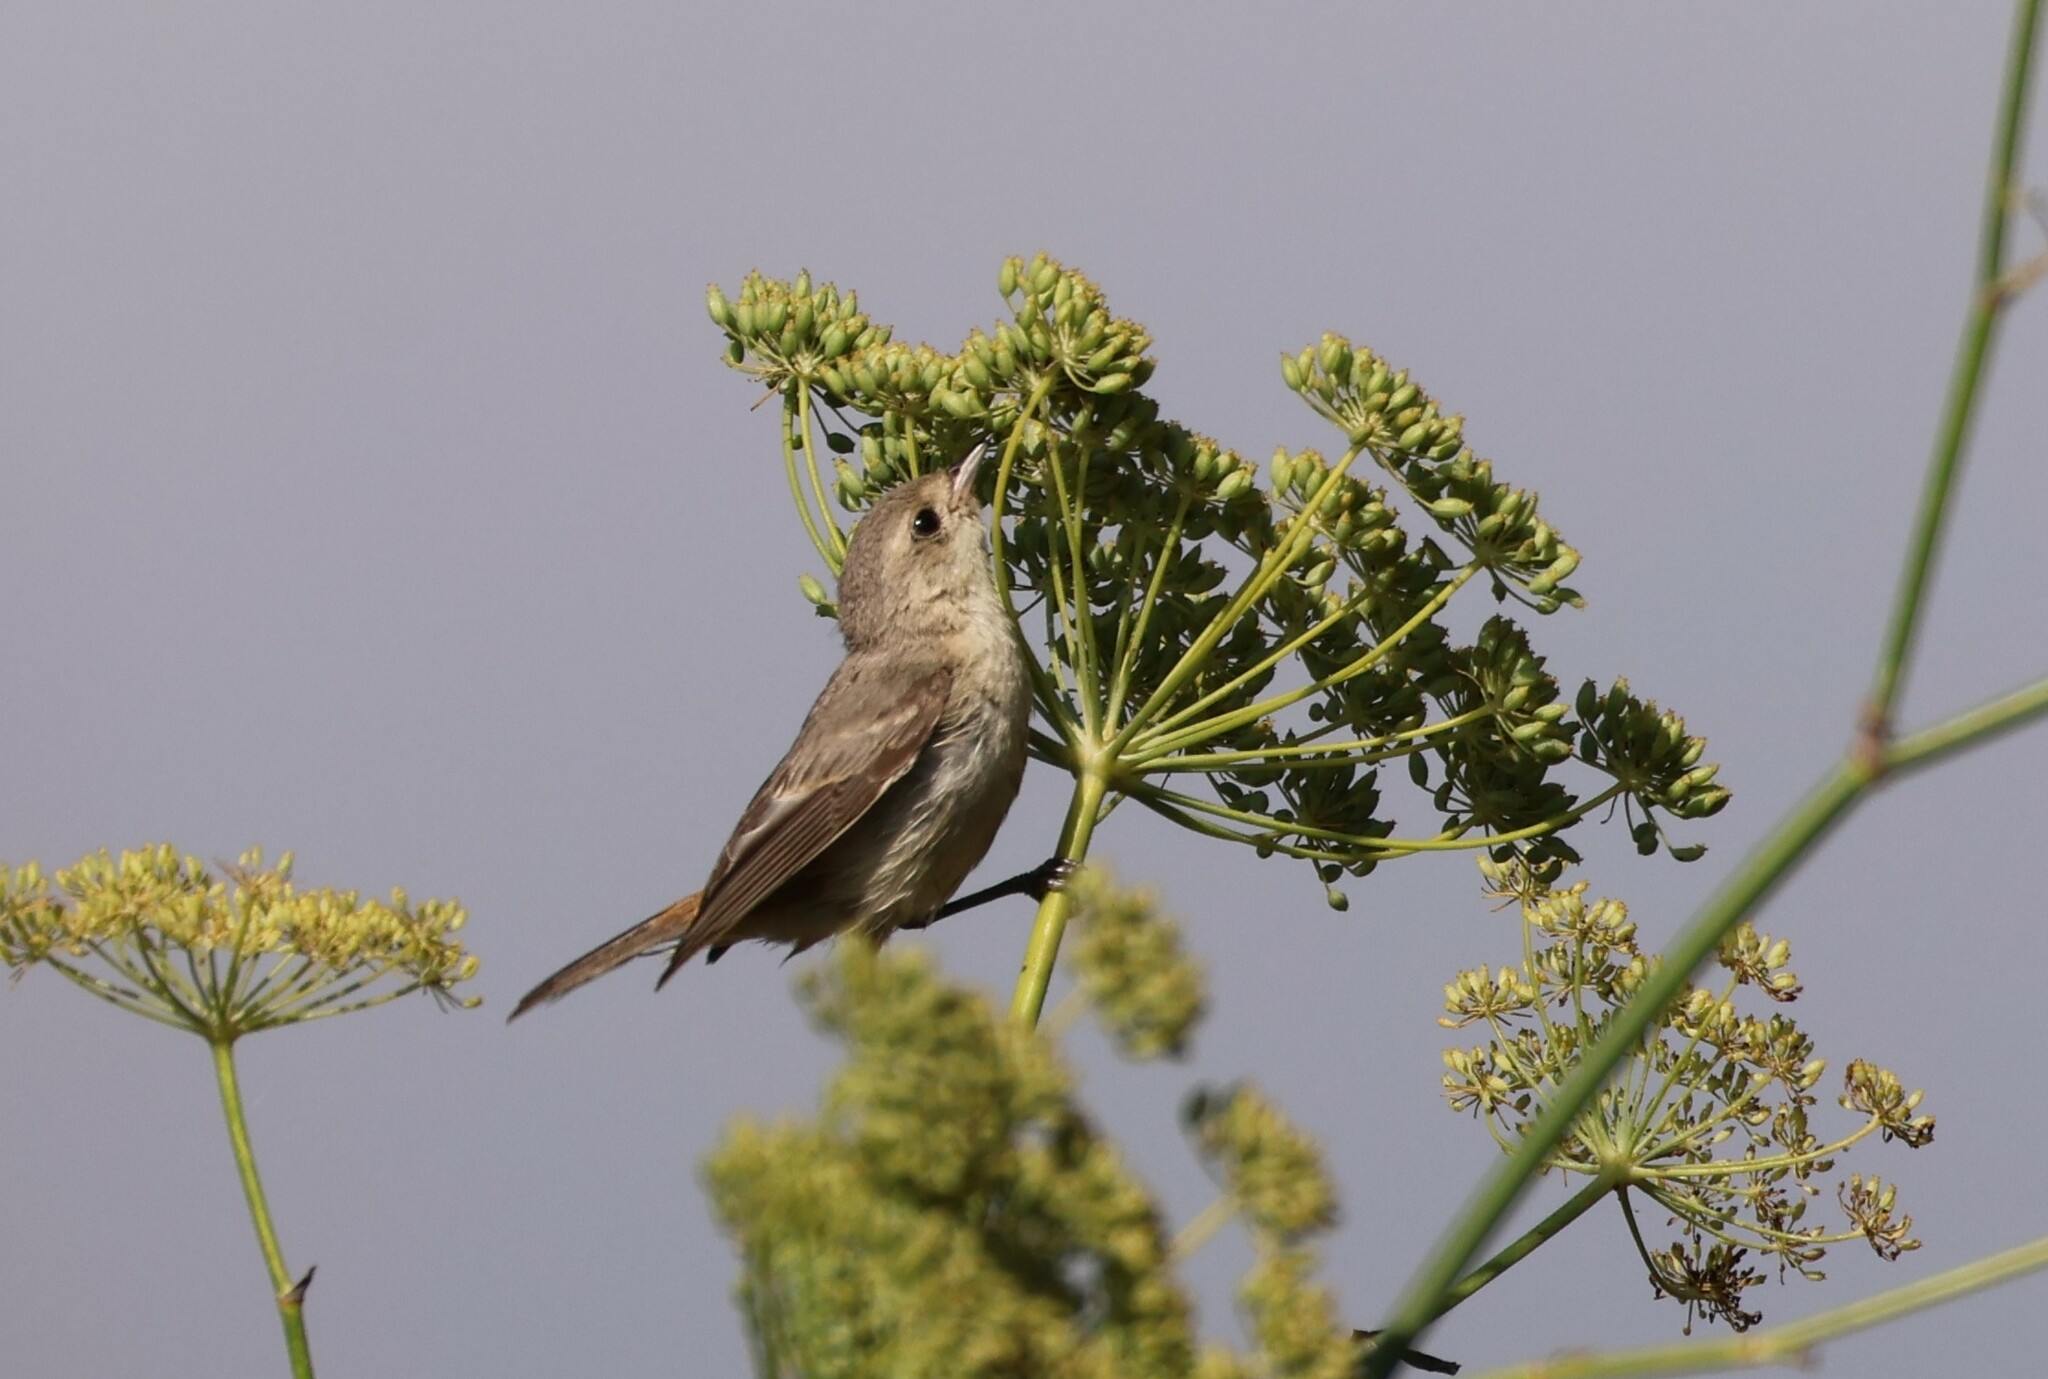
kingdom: Animalia
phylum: Chordata
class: Aves
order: Passeriformes
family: Parulidae
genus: Leiothlypis
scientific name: Leiothlypis luciae
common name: Lucy's warbler
